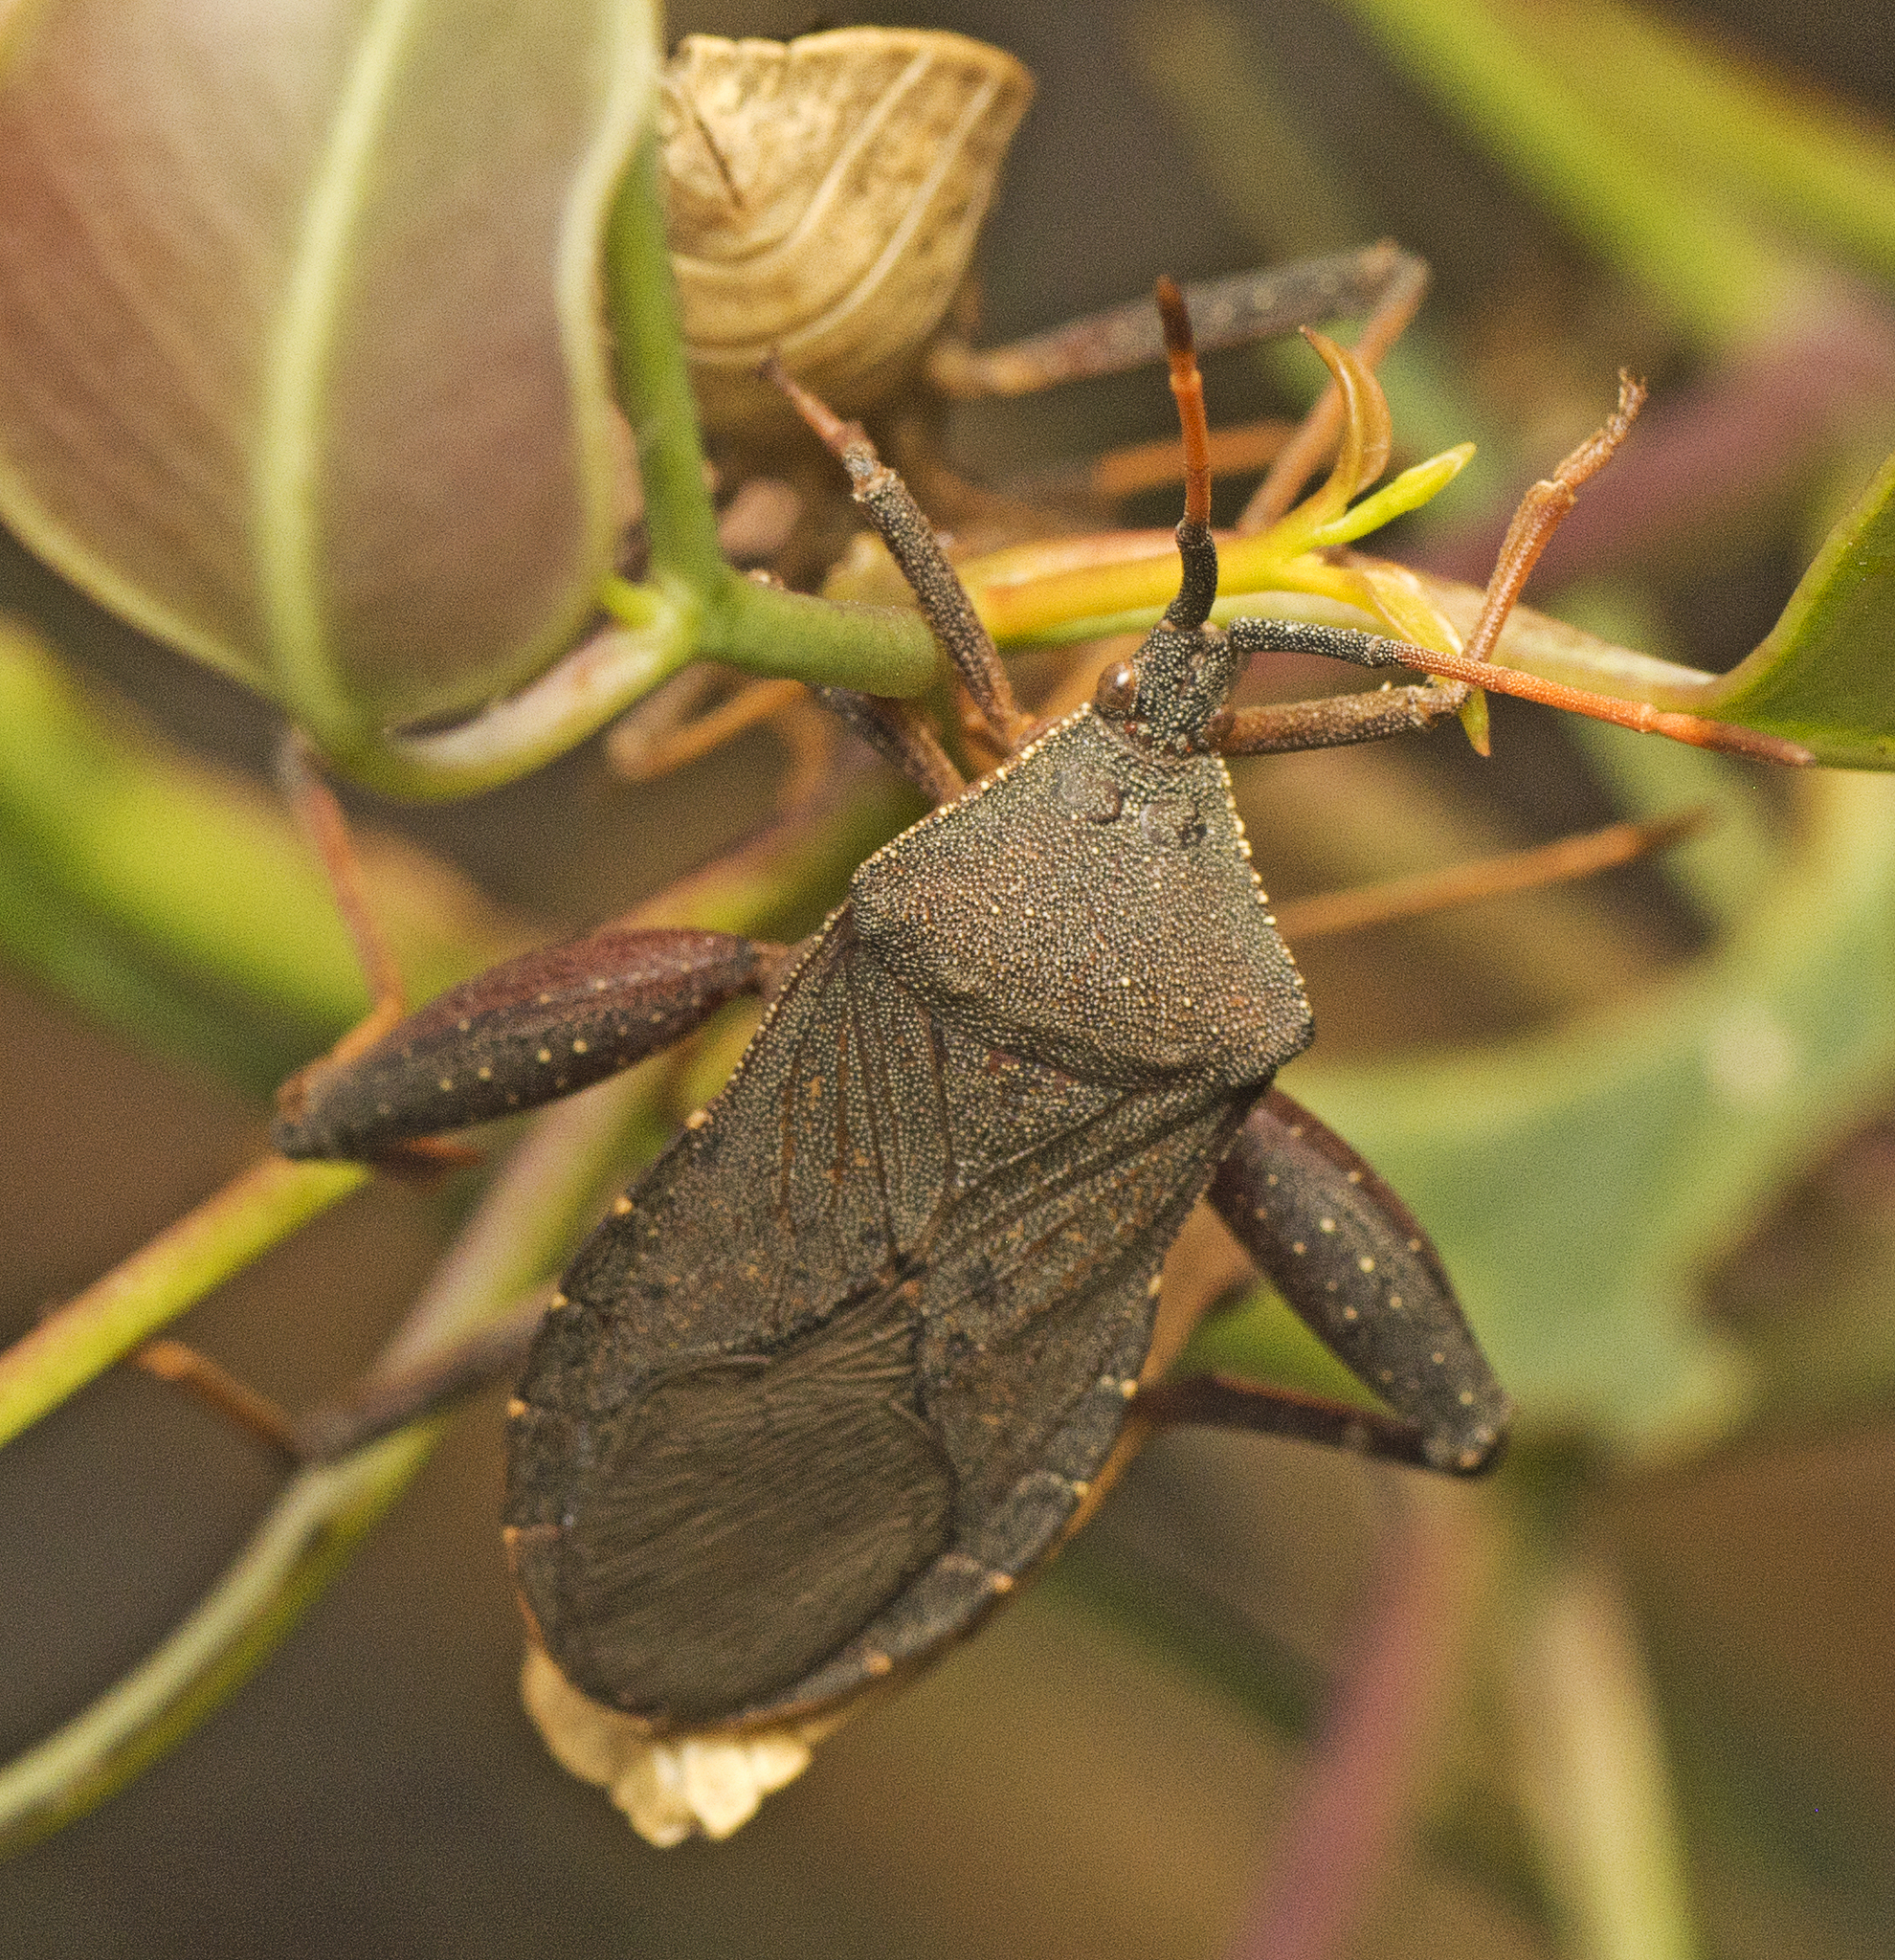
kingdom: Animalia
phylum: Arthropoda
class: Insecta
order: Hemiptera
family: Coreidae
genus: Amorbus
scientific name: Amorbus rubiginosus
